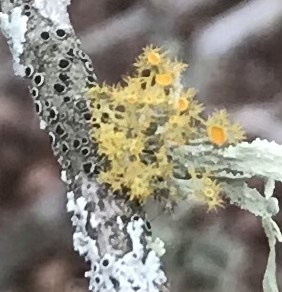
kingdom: Fungi
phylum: Ascomycota
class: Lecanoromycetes
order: Teloschistales
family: Teloschistaceae
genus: Niorma
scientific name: Niorma chrysophthalma
